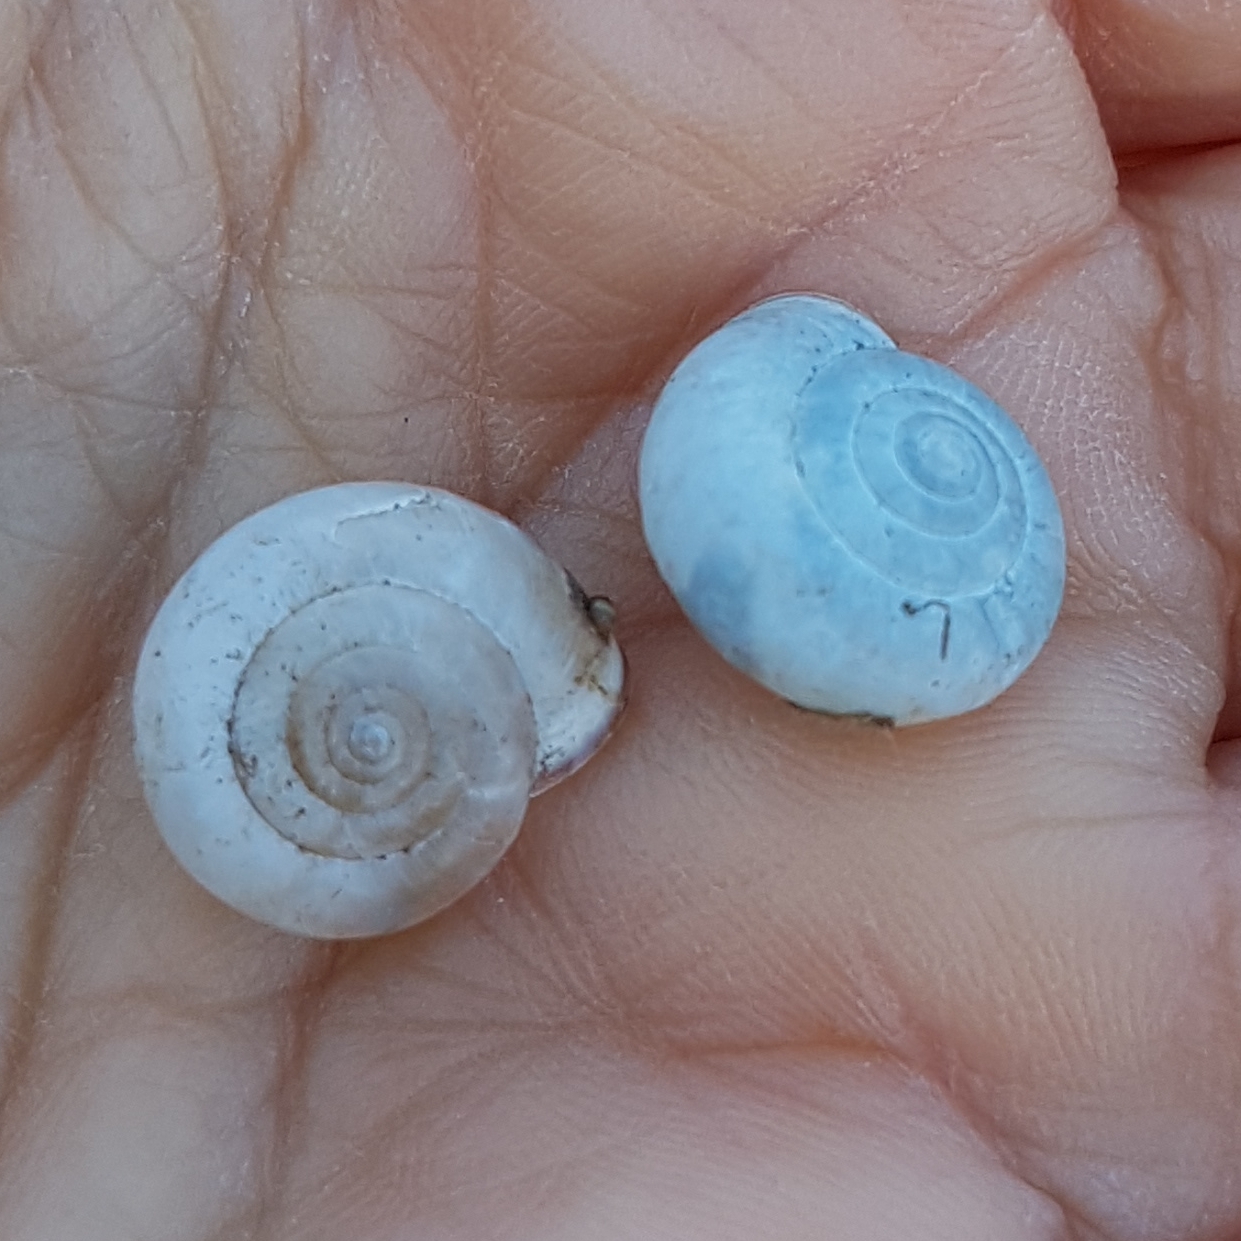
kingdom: Animalia
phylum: Mollusca
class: Gastropoda
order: Stylommatophora
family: Hygromiidae
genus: Monacha
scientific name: Monacha cartusiana
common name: Carthusian snail
